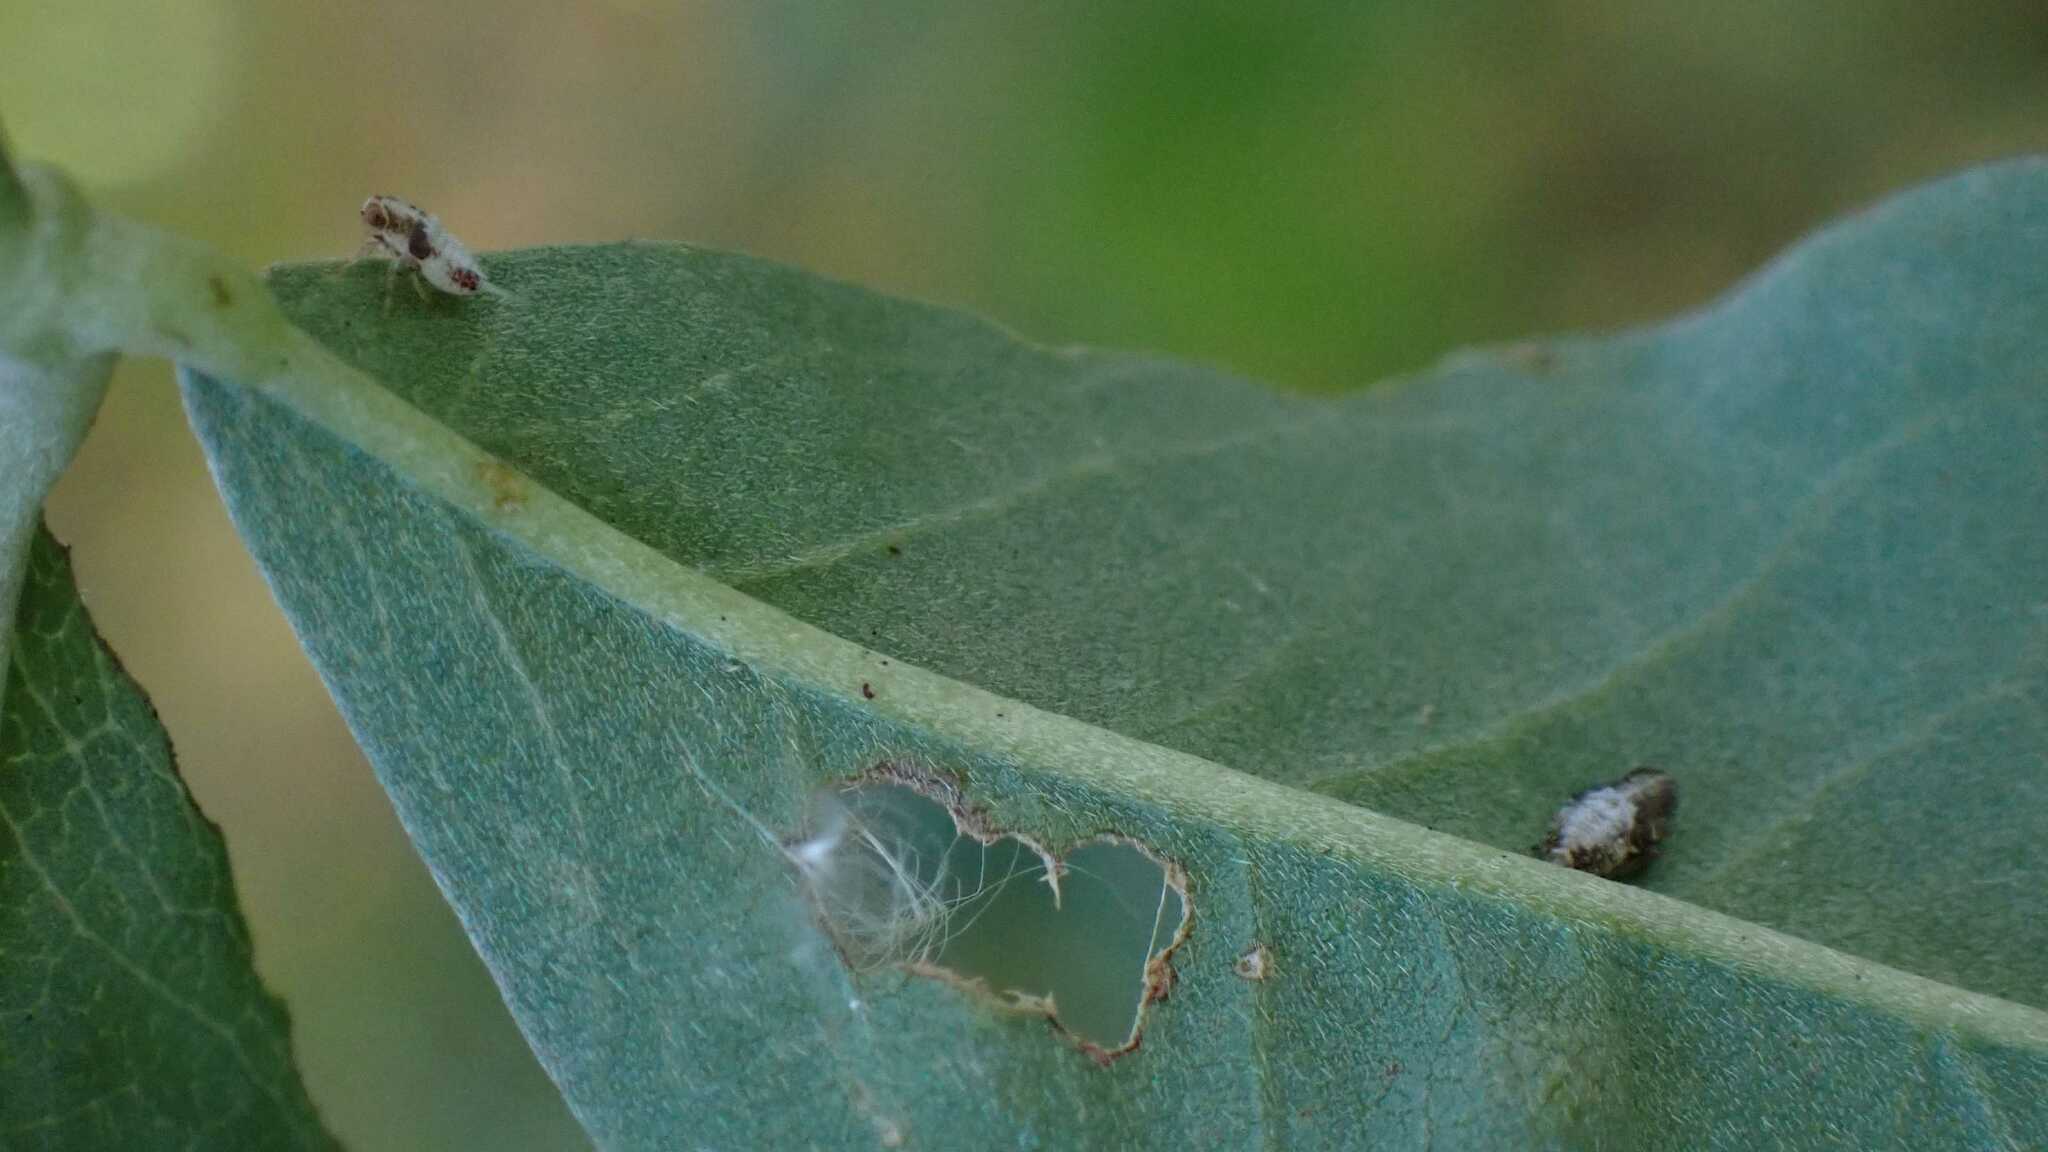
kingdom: Animalia
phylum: Arthropoda
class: Insecta
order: Hemiptera
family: Issidae
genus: Issus
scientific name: Issus
